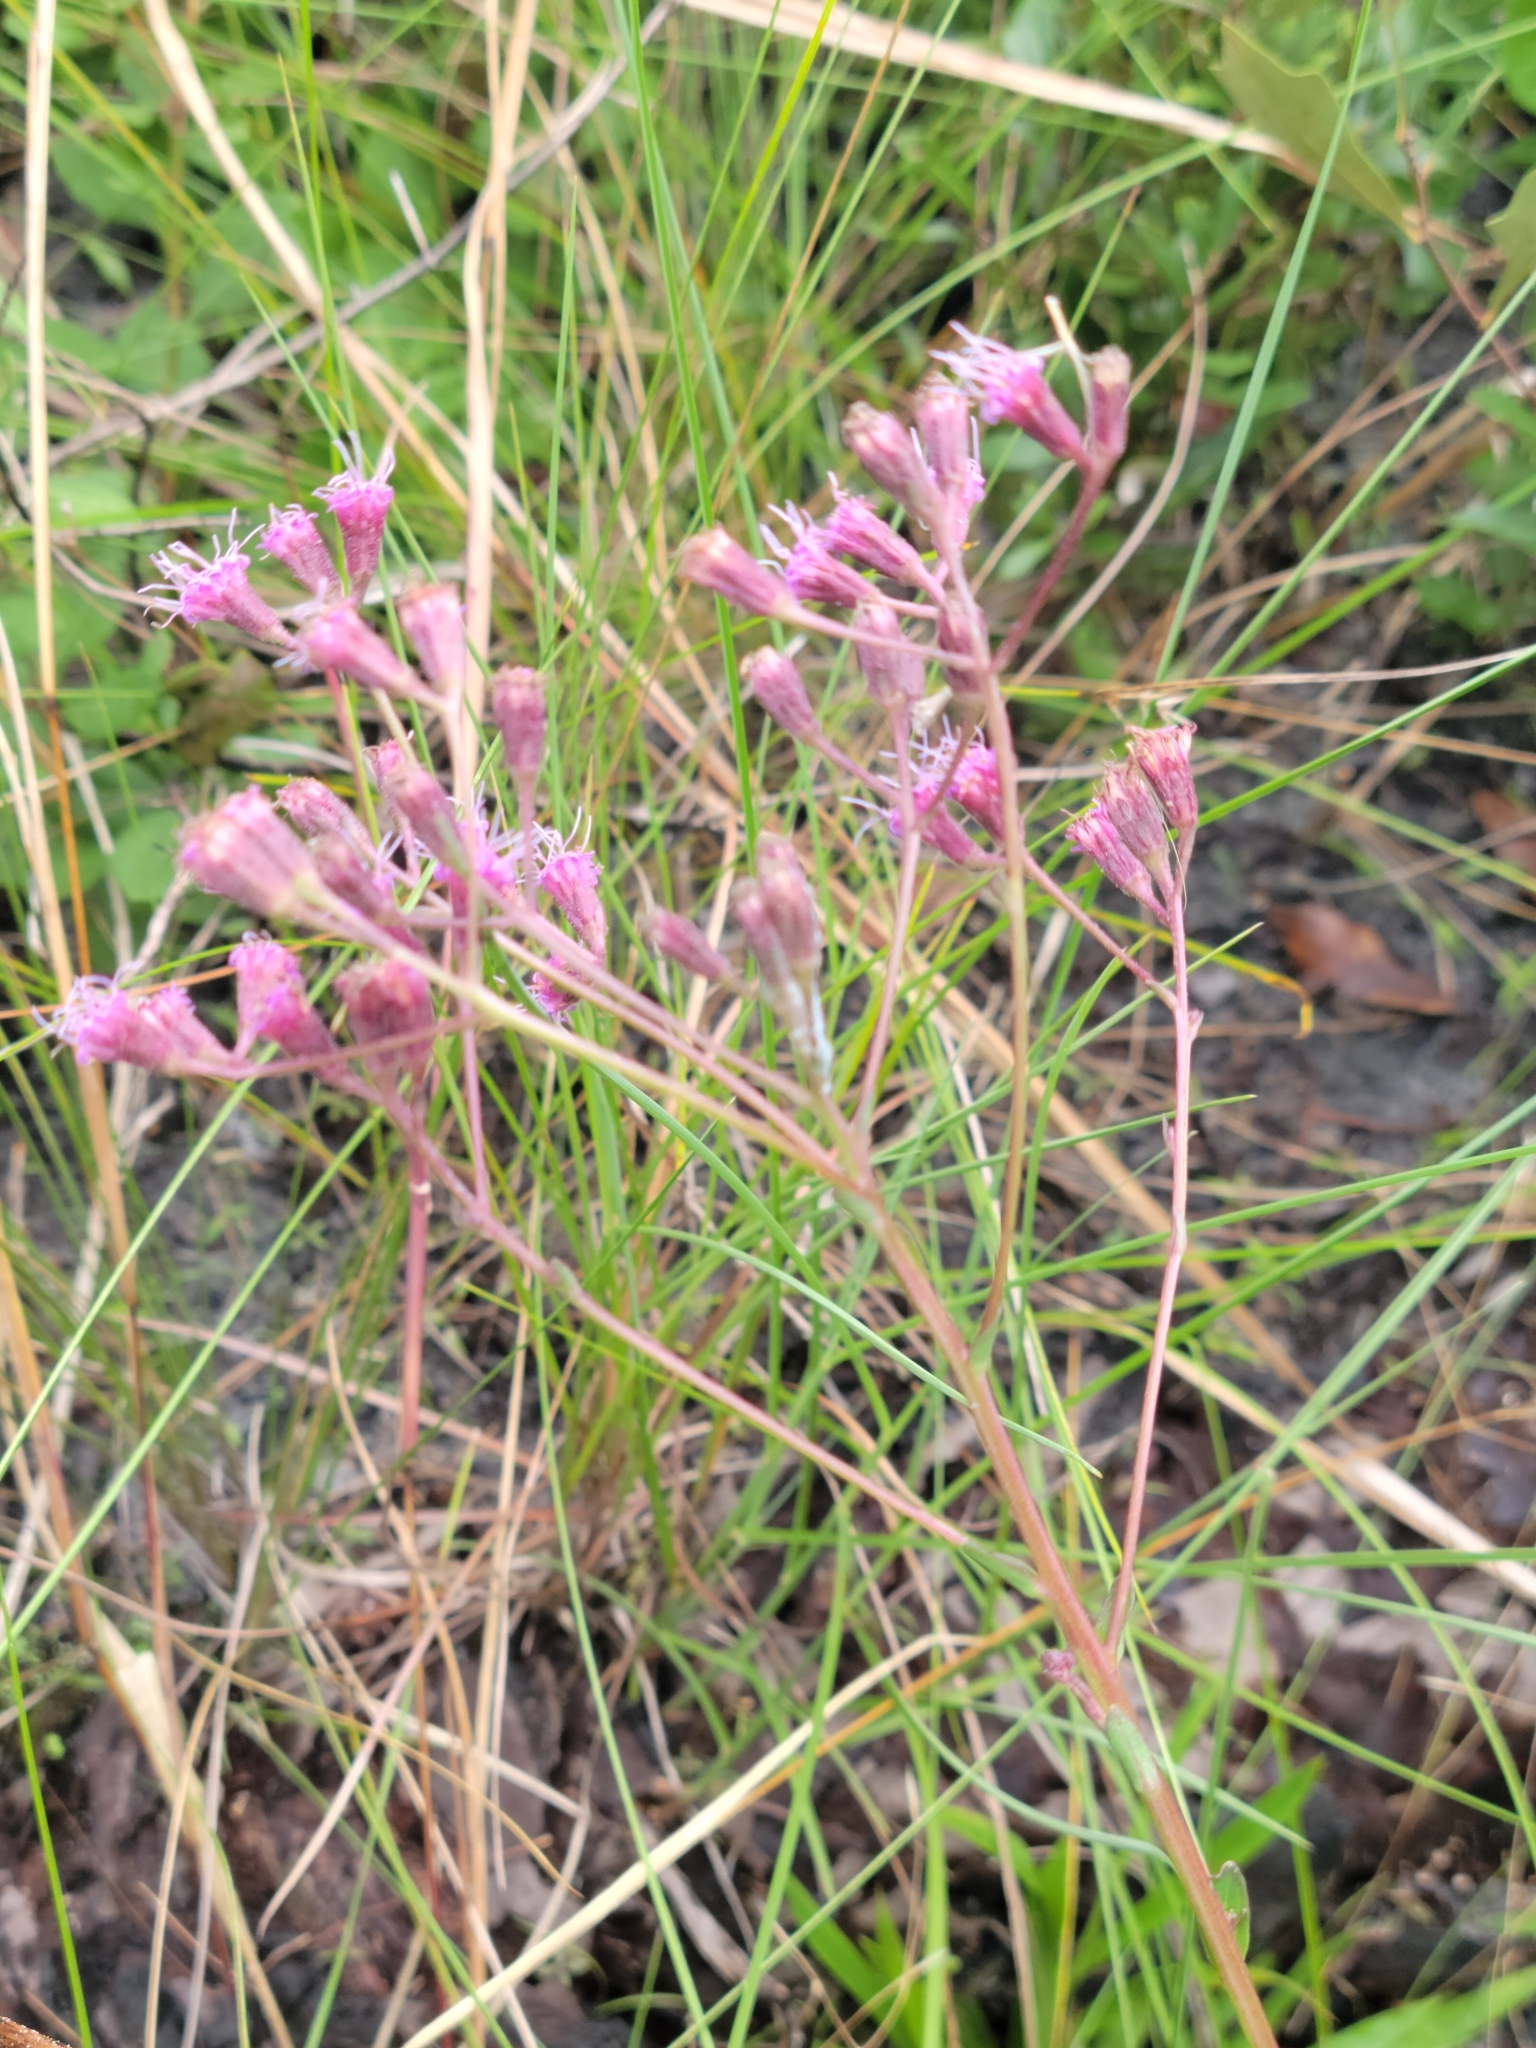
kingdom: Plantae
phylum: Tracheophyta
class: Magnoliopsida
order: Asterales
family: Asteraceae
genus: Carphephorus
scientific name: Carphephorus
